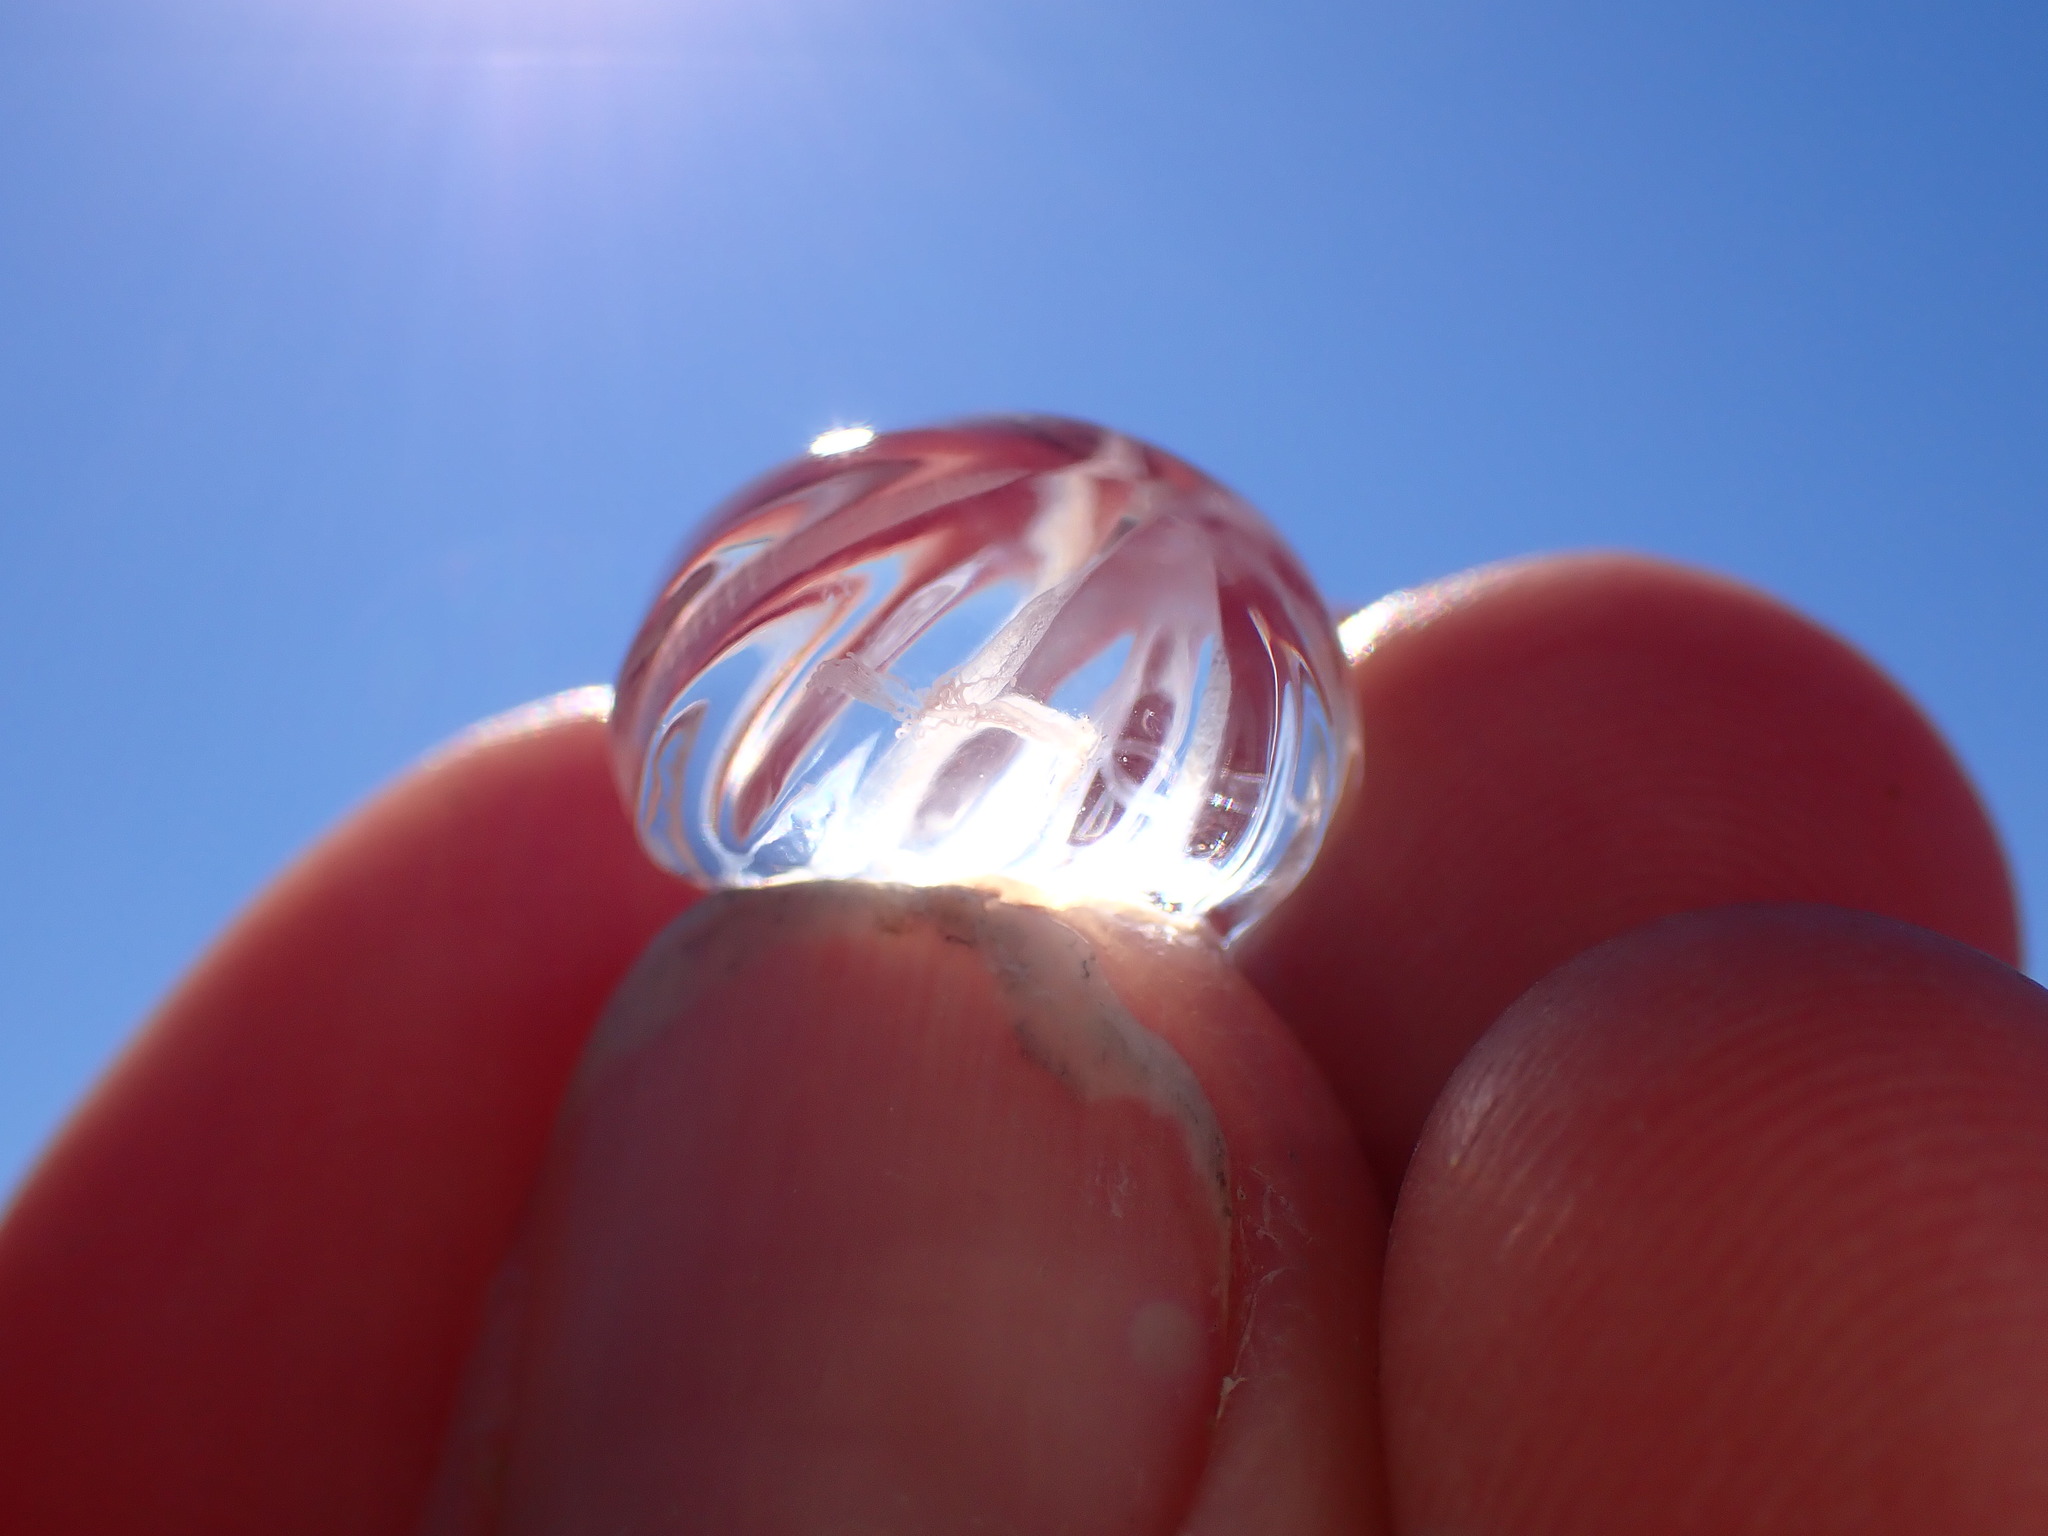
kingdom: Animalia
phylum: Ctenophora
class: Tentaculata
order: Cydippida
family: Pleurobrachiidae
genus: Pleurobrachia
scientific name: Pleurobrachia bachei
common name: Pacific sea gooseberry
